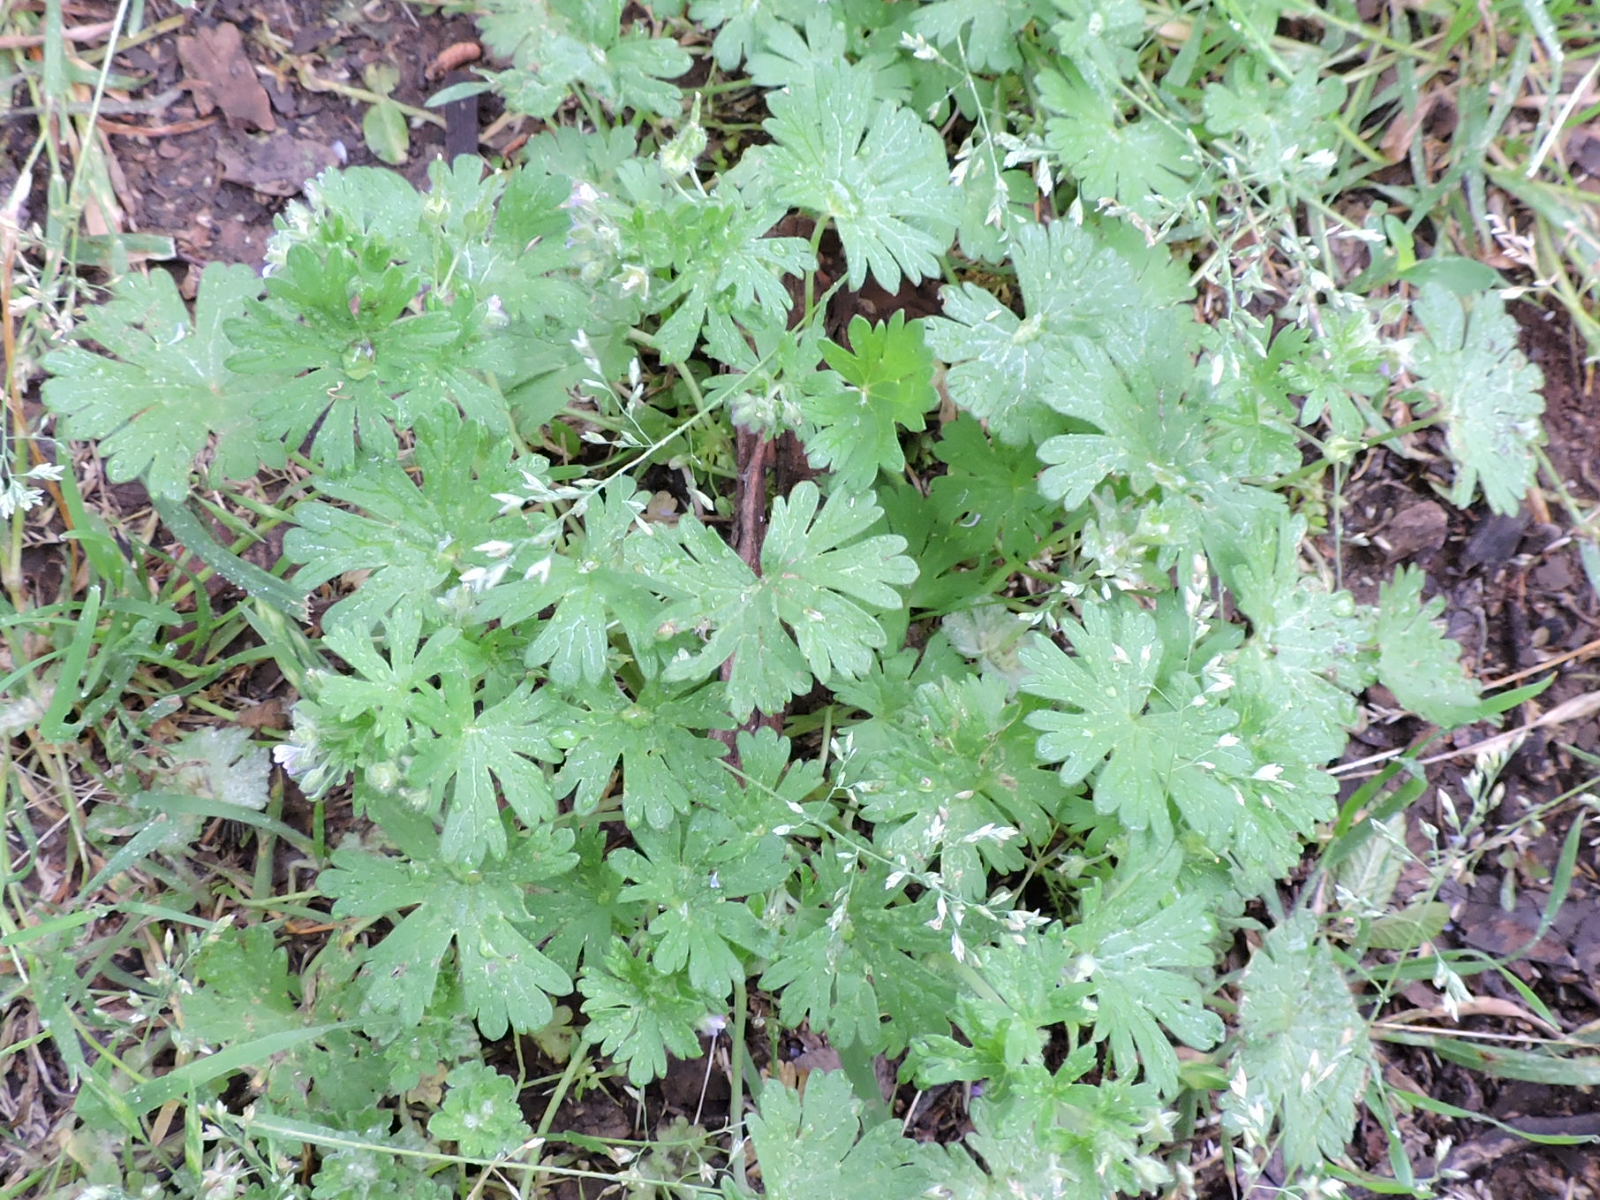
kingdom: Plantae
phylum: Tracheophyta
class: Magnoliopsida
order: Geraniales
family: Geraniaceae
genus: Geranium
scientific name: Geranium carolinianum
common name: Carolina crane's-bill
